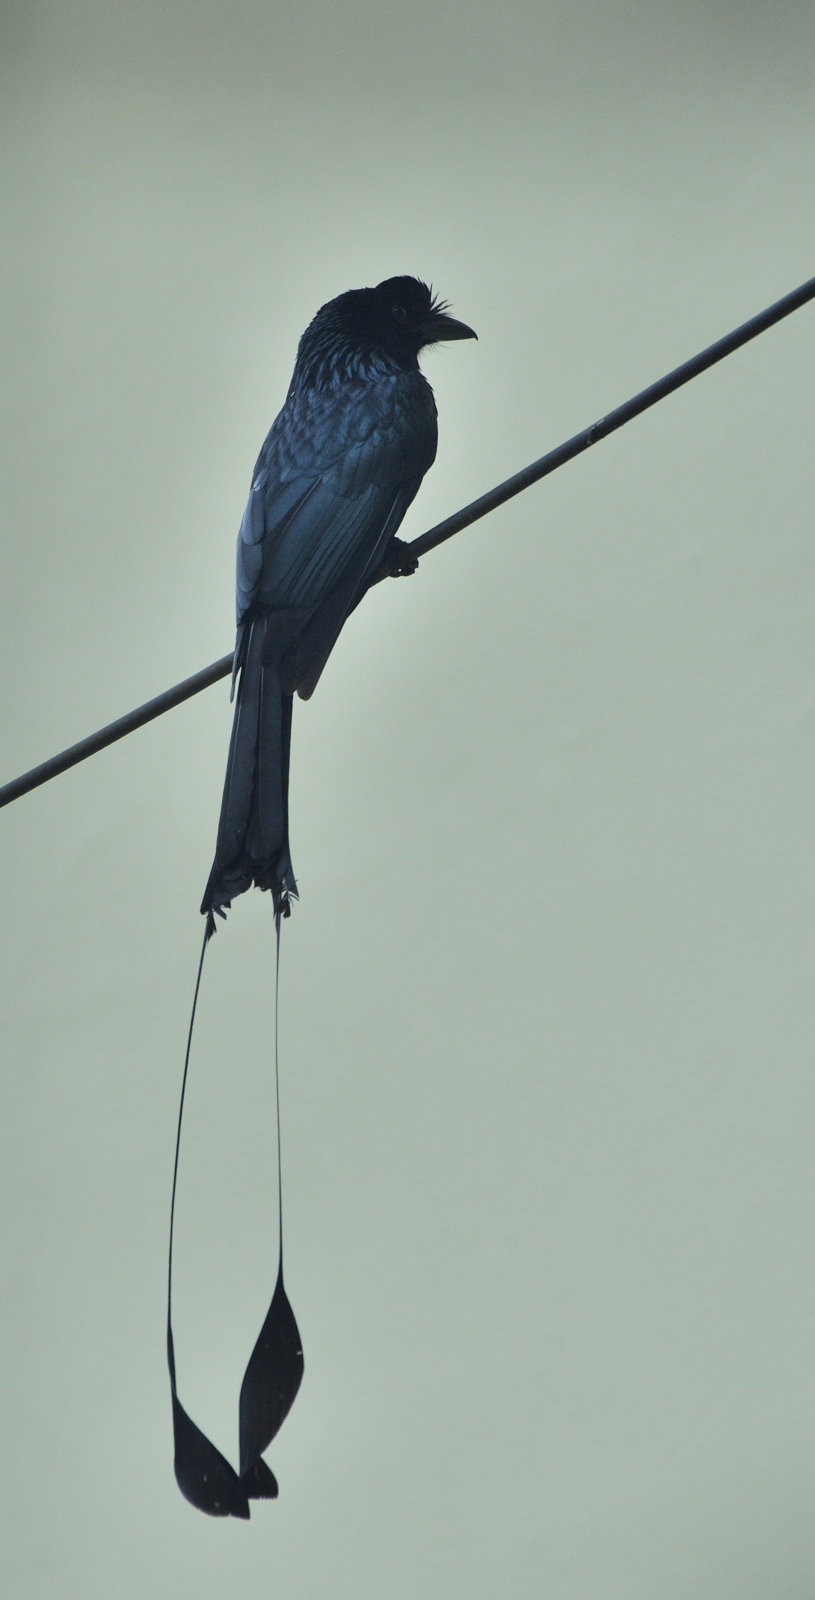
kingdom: Animalia
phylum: Chordata
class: Aves
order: Passeriformes
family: Dicruridae
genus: Dicrurus
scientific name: Dicrurus paradiseus
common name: Greater racket-tailed drongo
